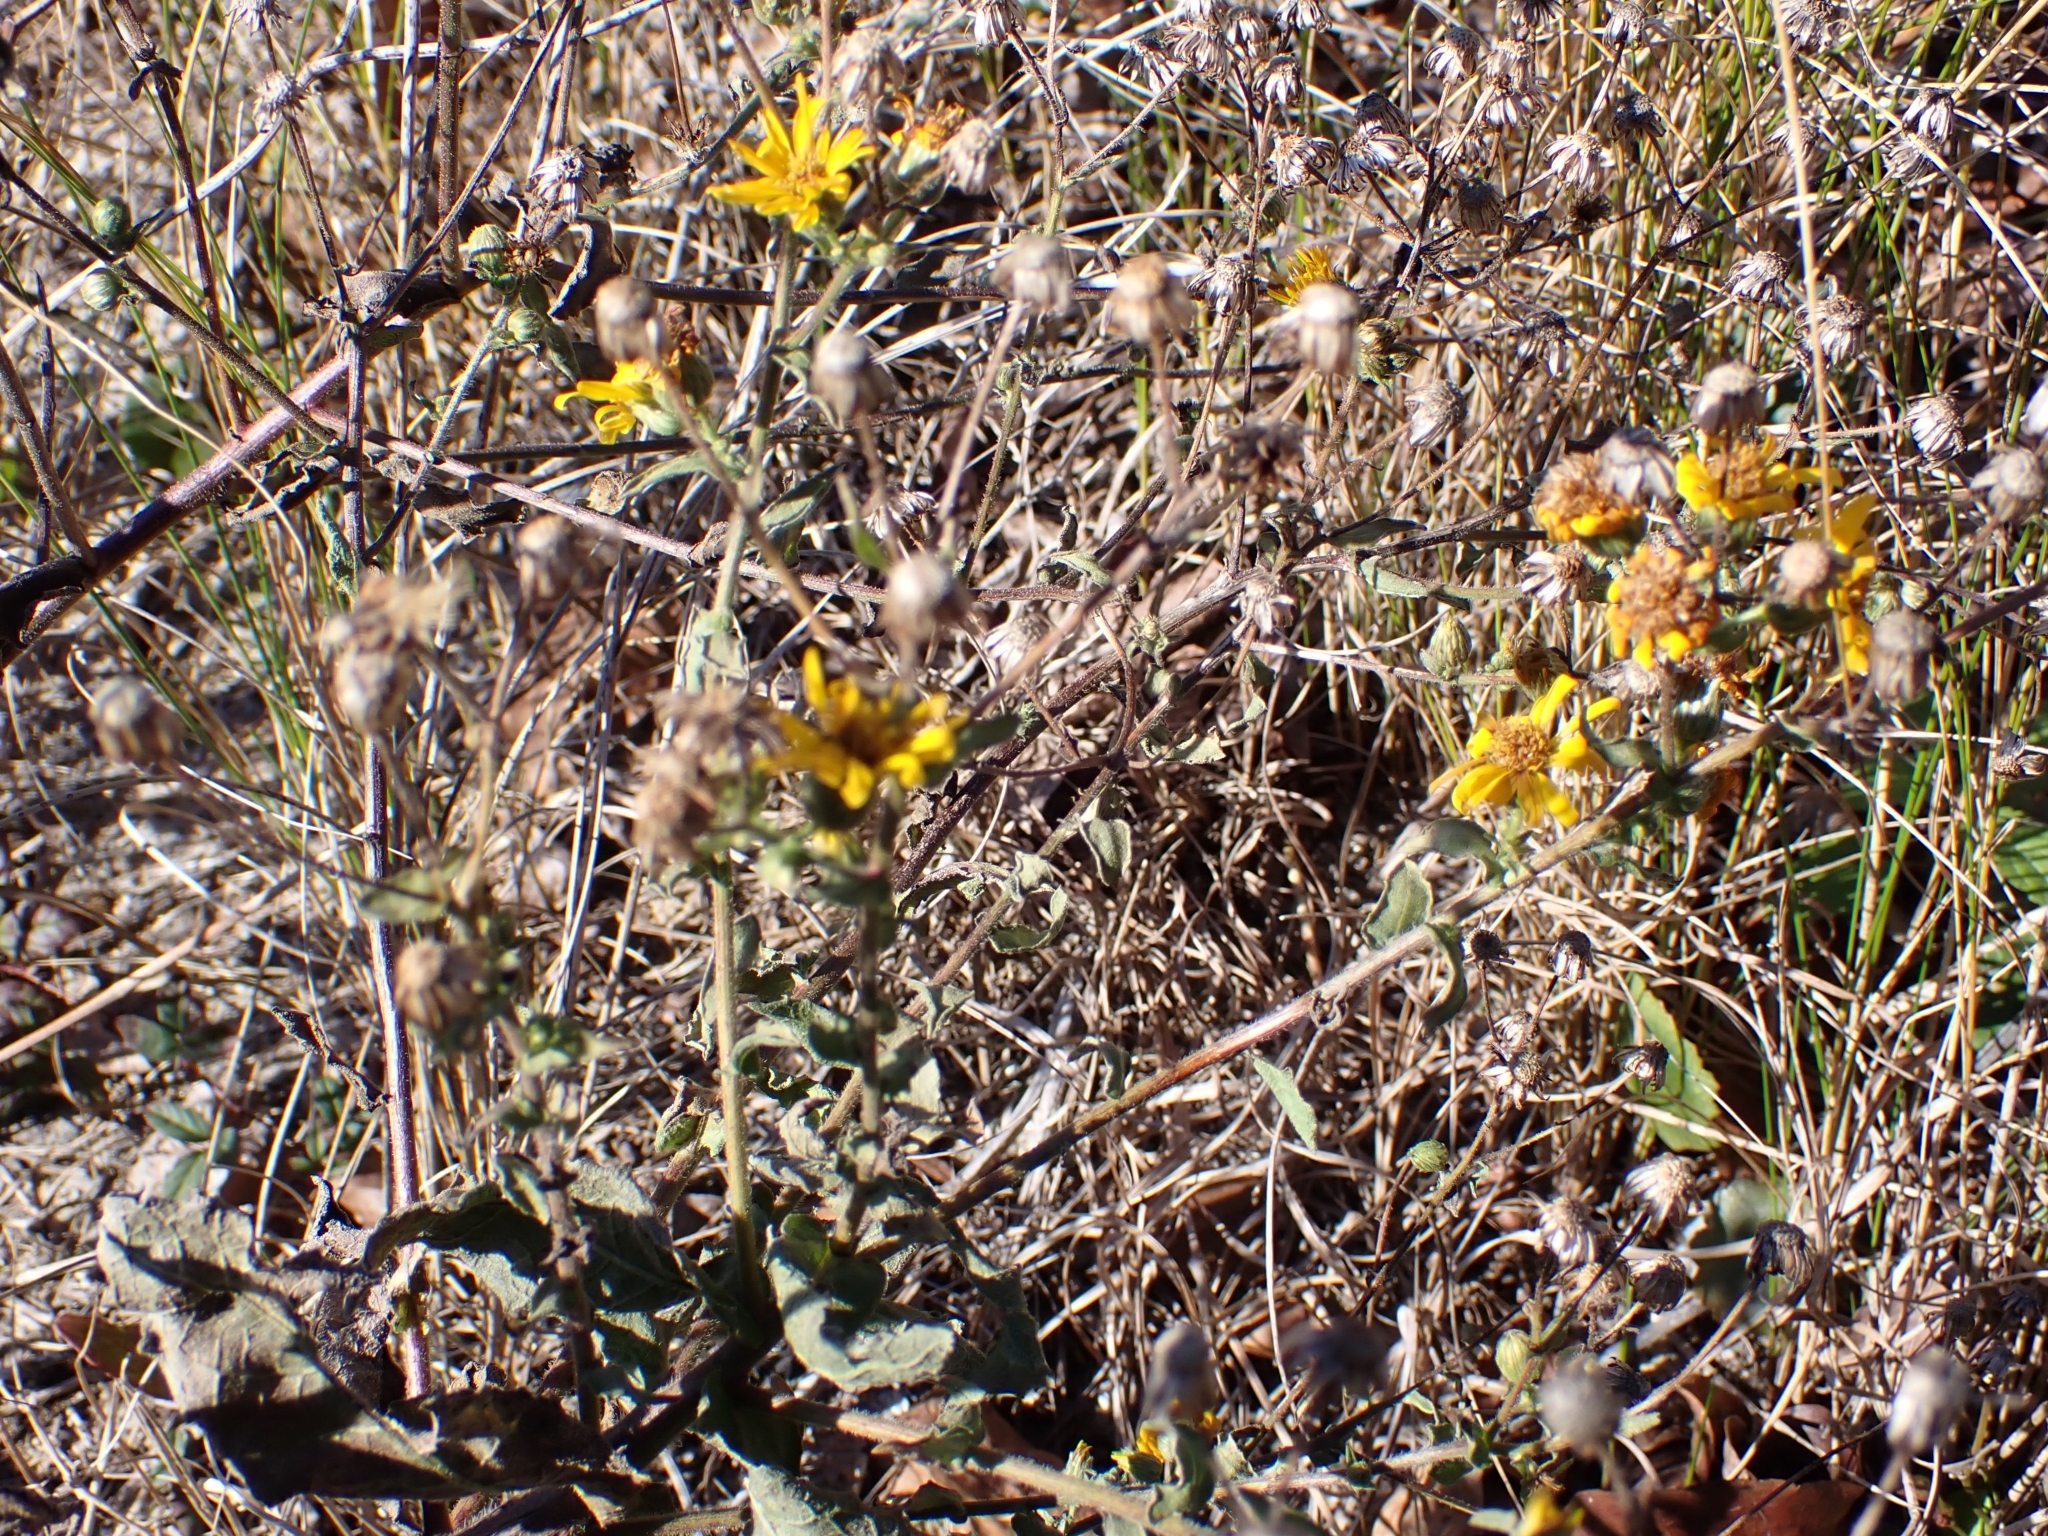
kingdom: Plantae
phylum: Tracheophyta
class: Magnoliopsida
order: Asterales
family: Asteraceae
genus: Heterotheca
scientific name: Heterotheca subaxillaris
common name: Camphorweed
